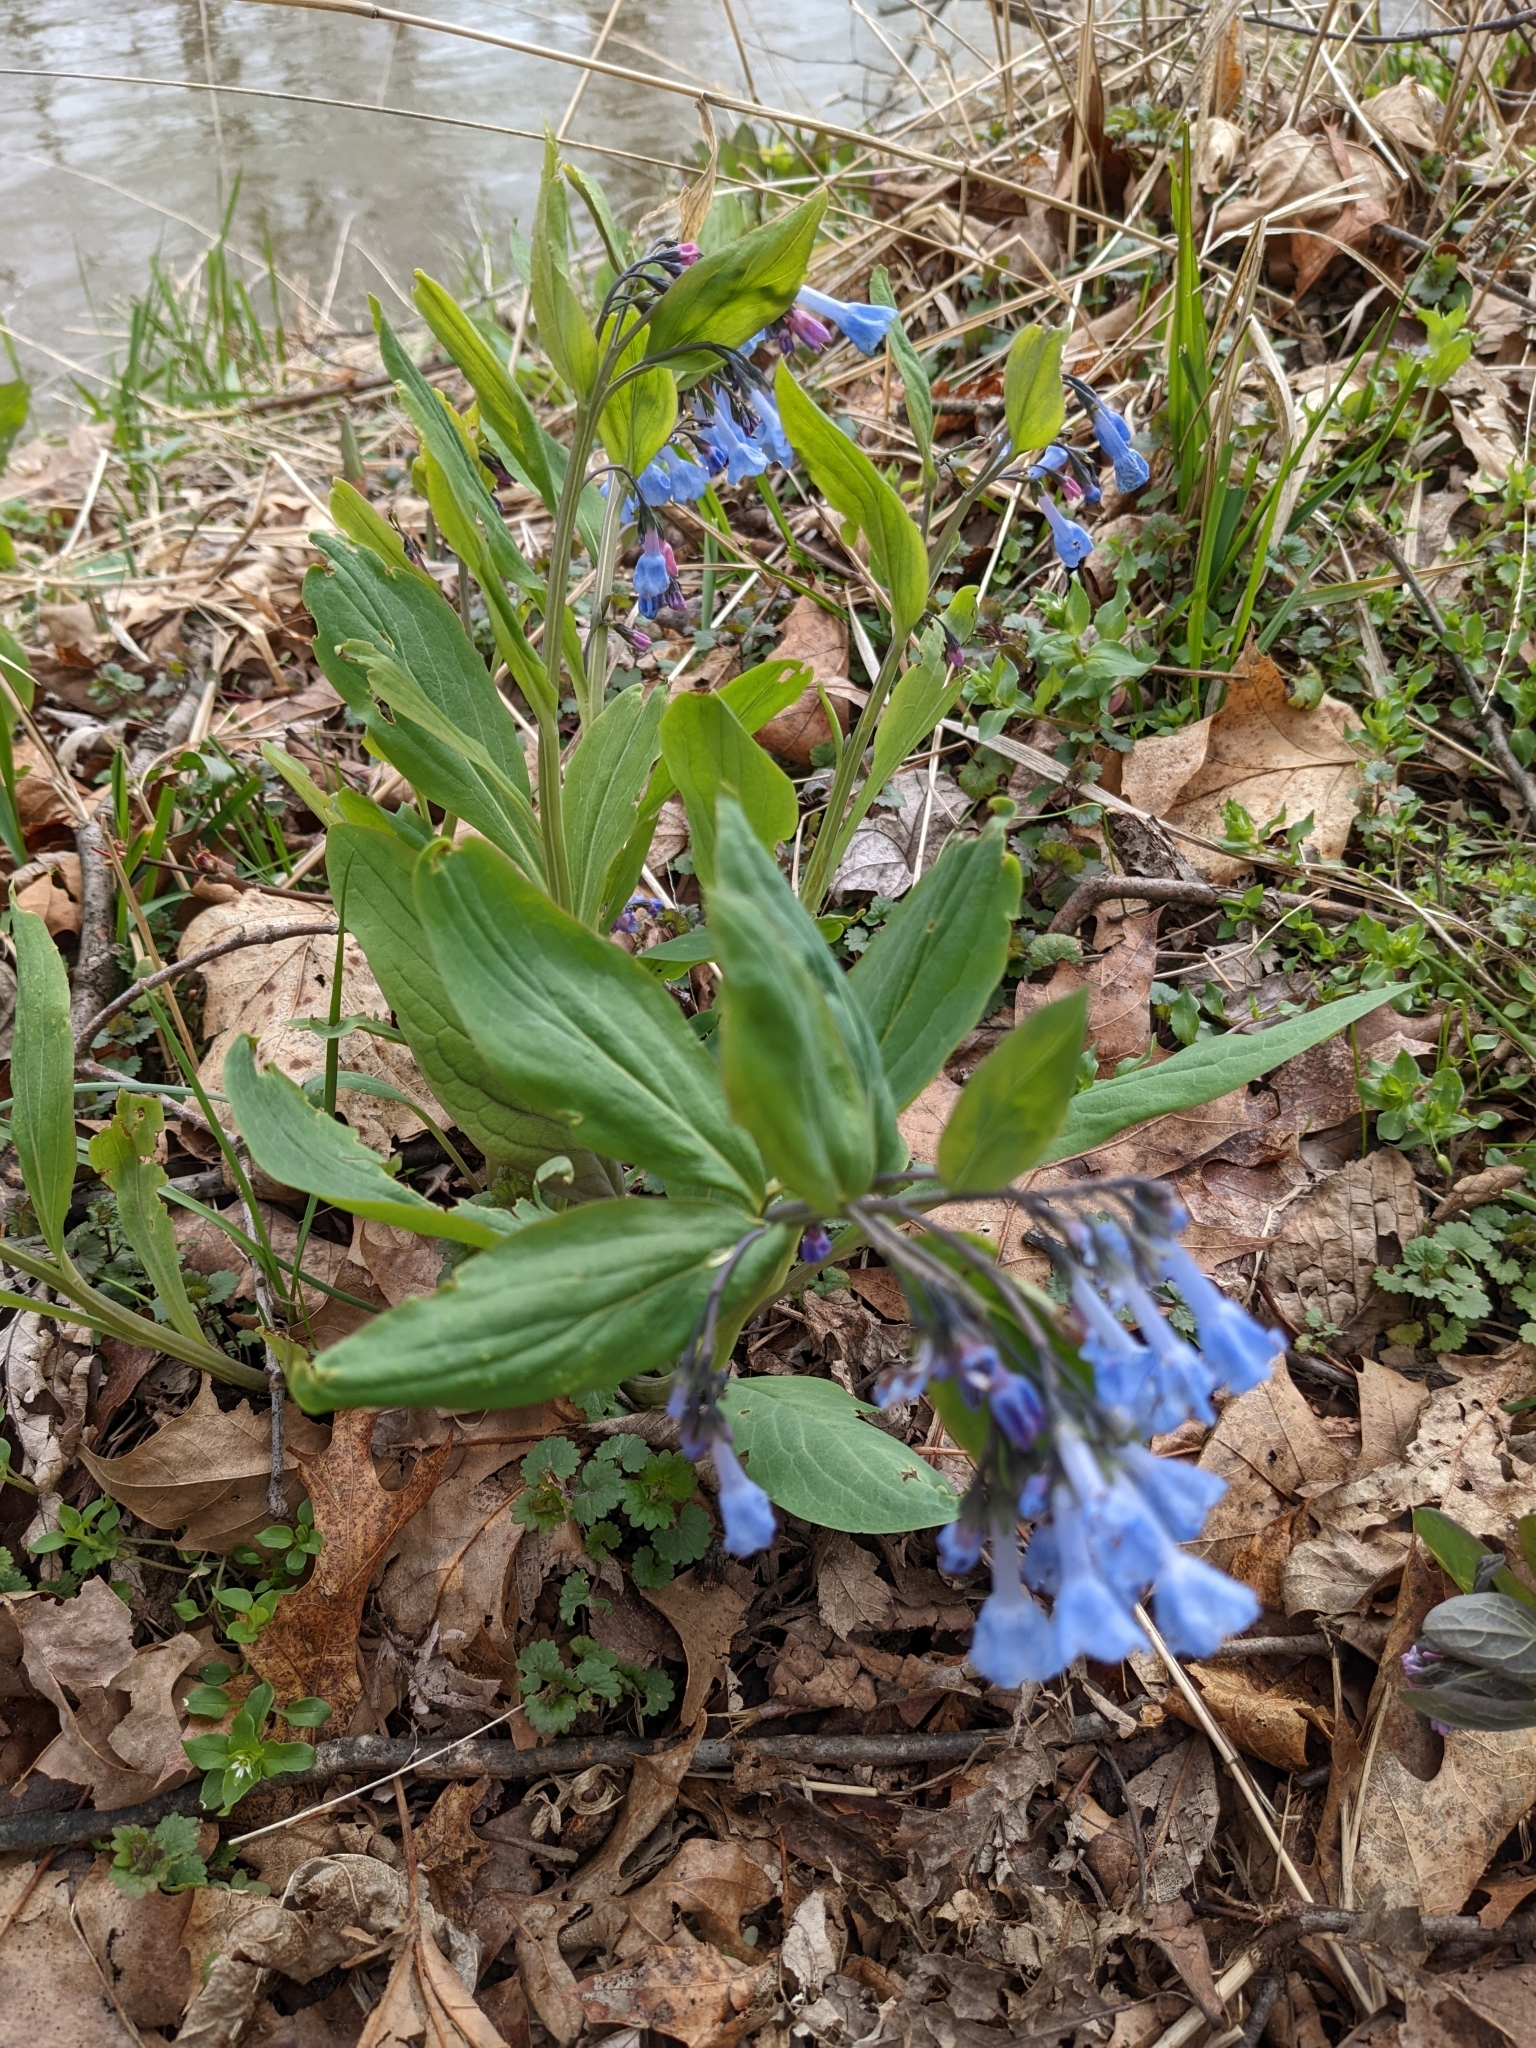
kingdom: Plantae
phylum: Tracheophyta
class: Magnoliopsida
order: Boraginales
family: Boraginaceae
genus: Mertensia
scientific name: Mertensia virginica
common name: Virginia bluebells
